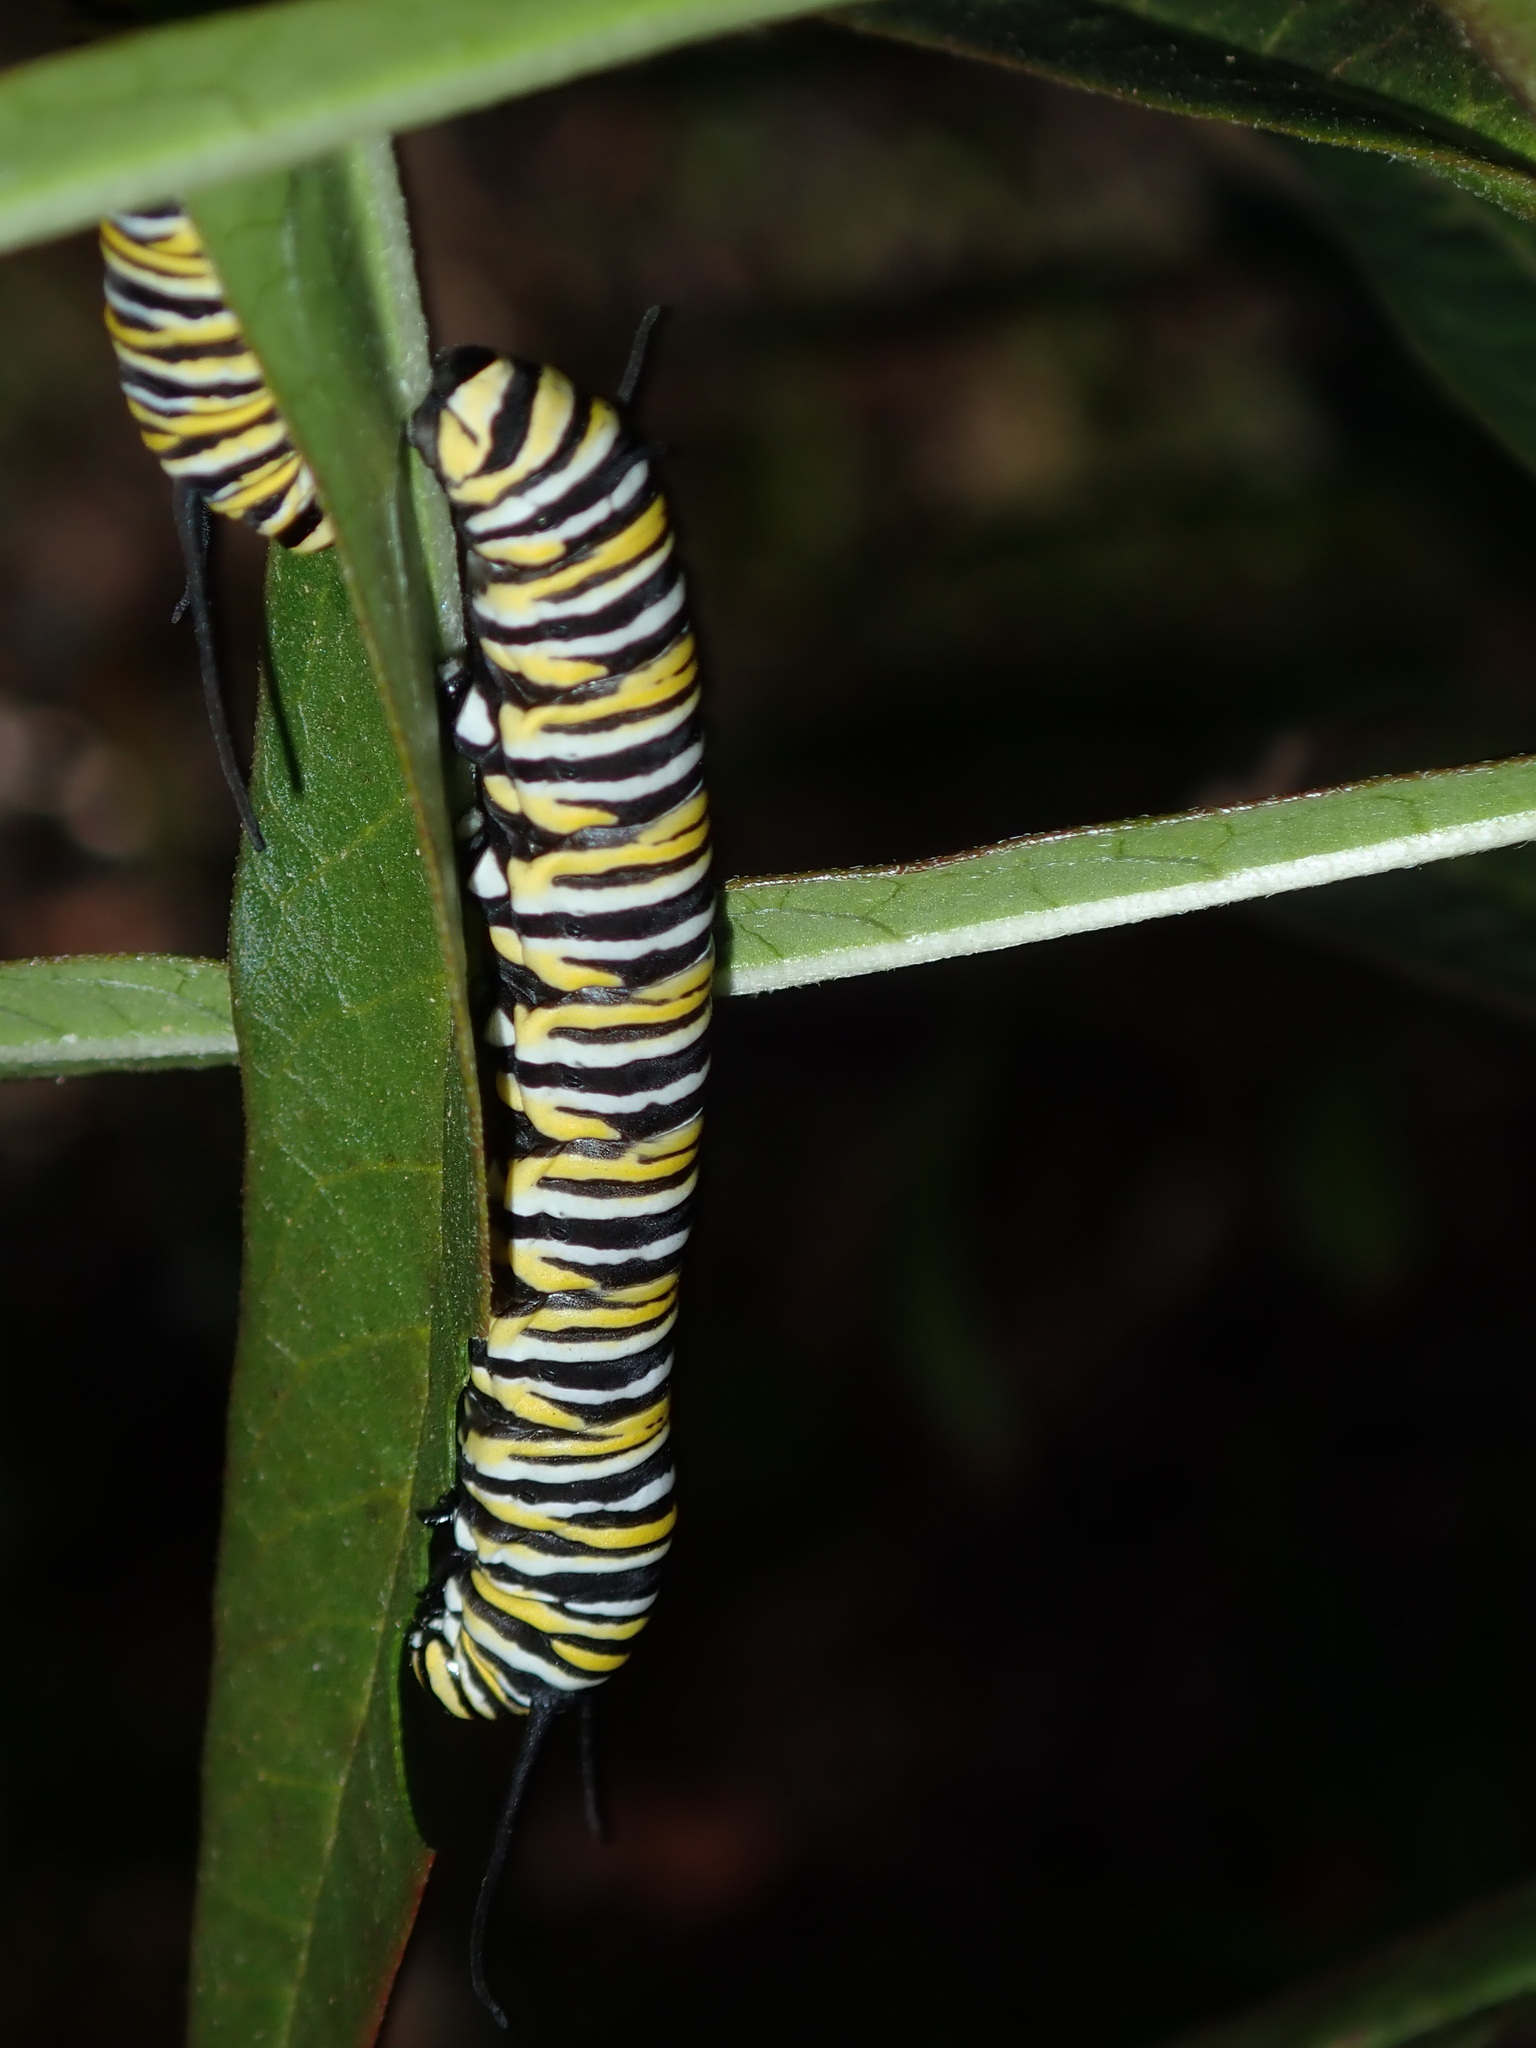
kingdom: Animalia
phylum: Arthropoda
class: Insecta
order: Lepidoptera
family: Nymphalidae
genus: Danaus
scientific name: Danaus plexippus
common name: Monarch
